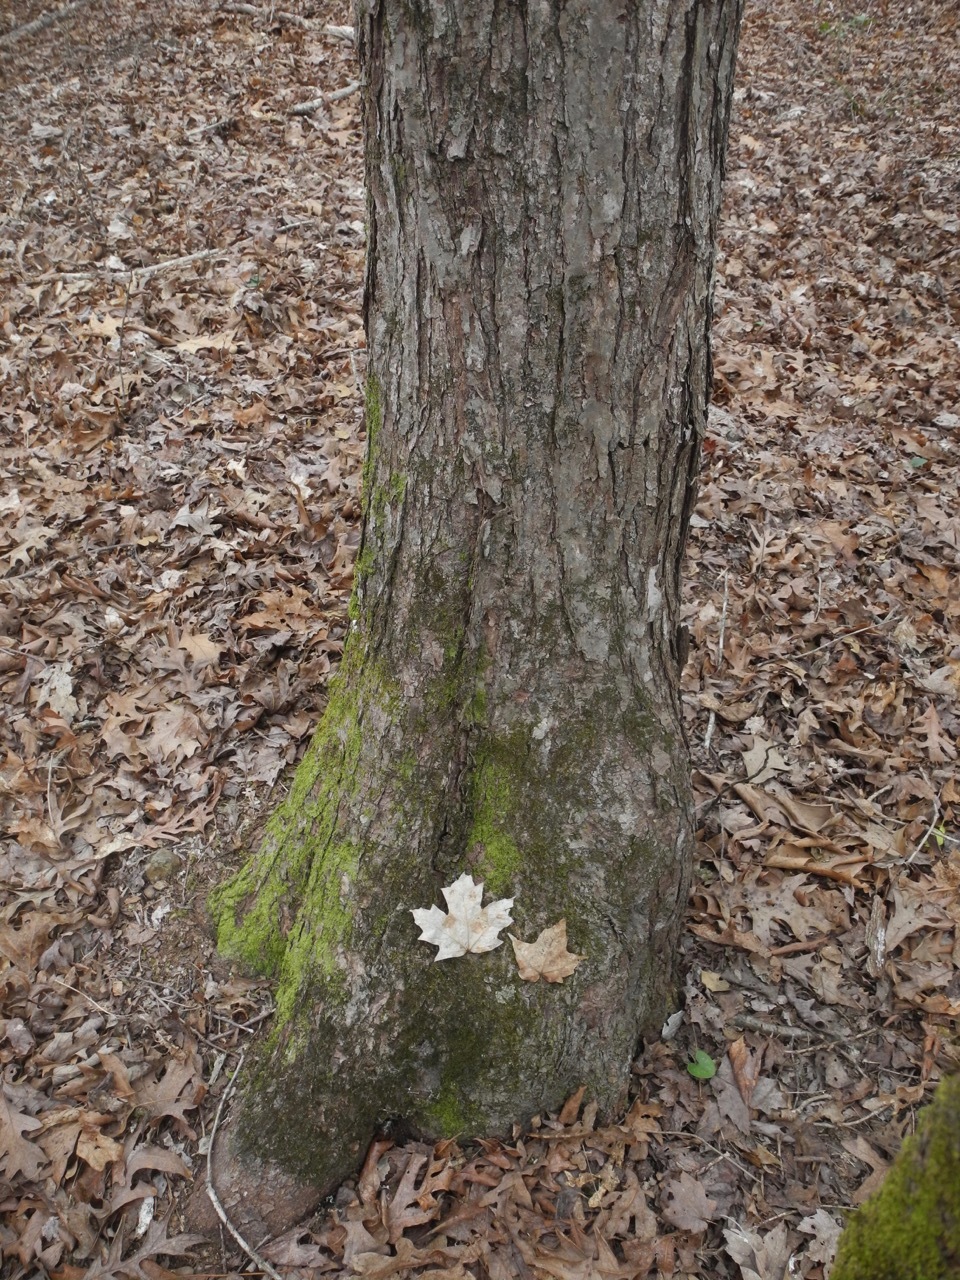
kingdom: Plantae
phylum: Tracheophyta
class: Magnoliopsida
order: Sapindales
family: Sapindaceae
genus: Acer
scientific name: Acer floridanum
